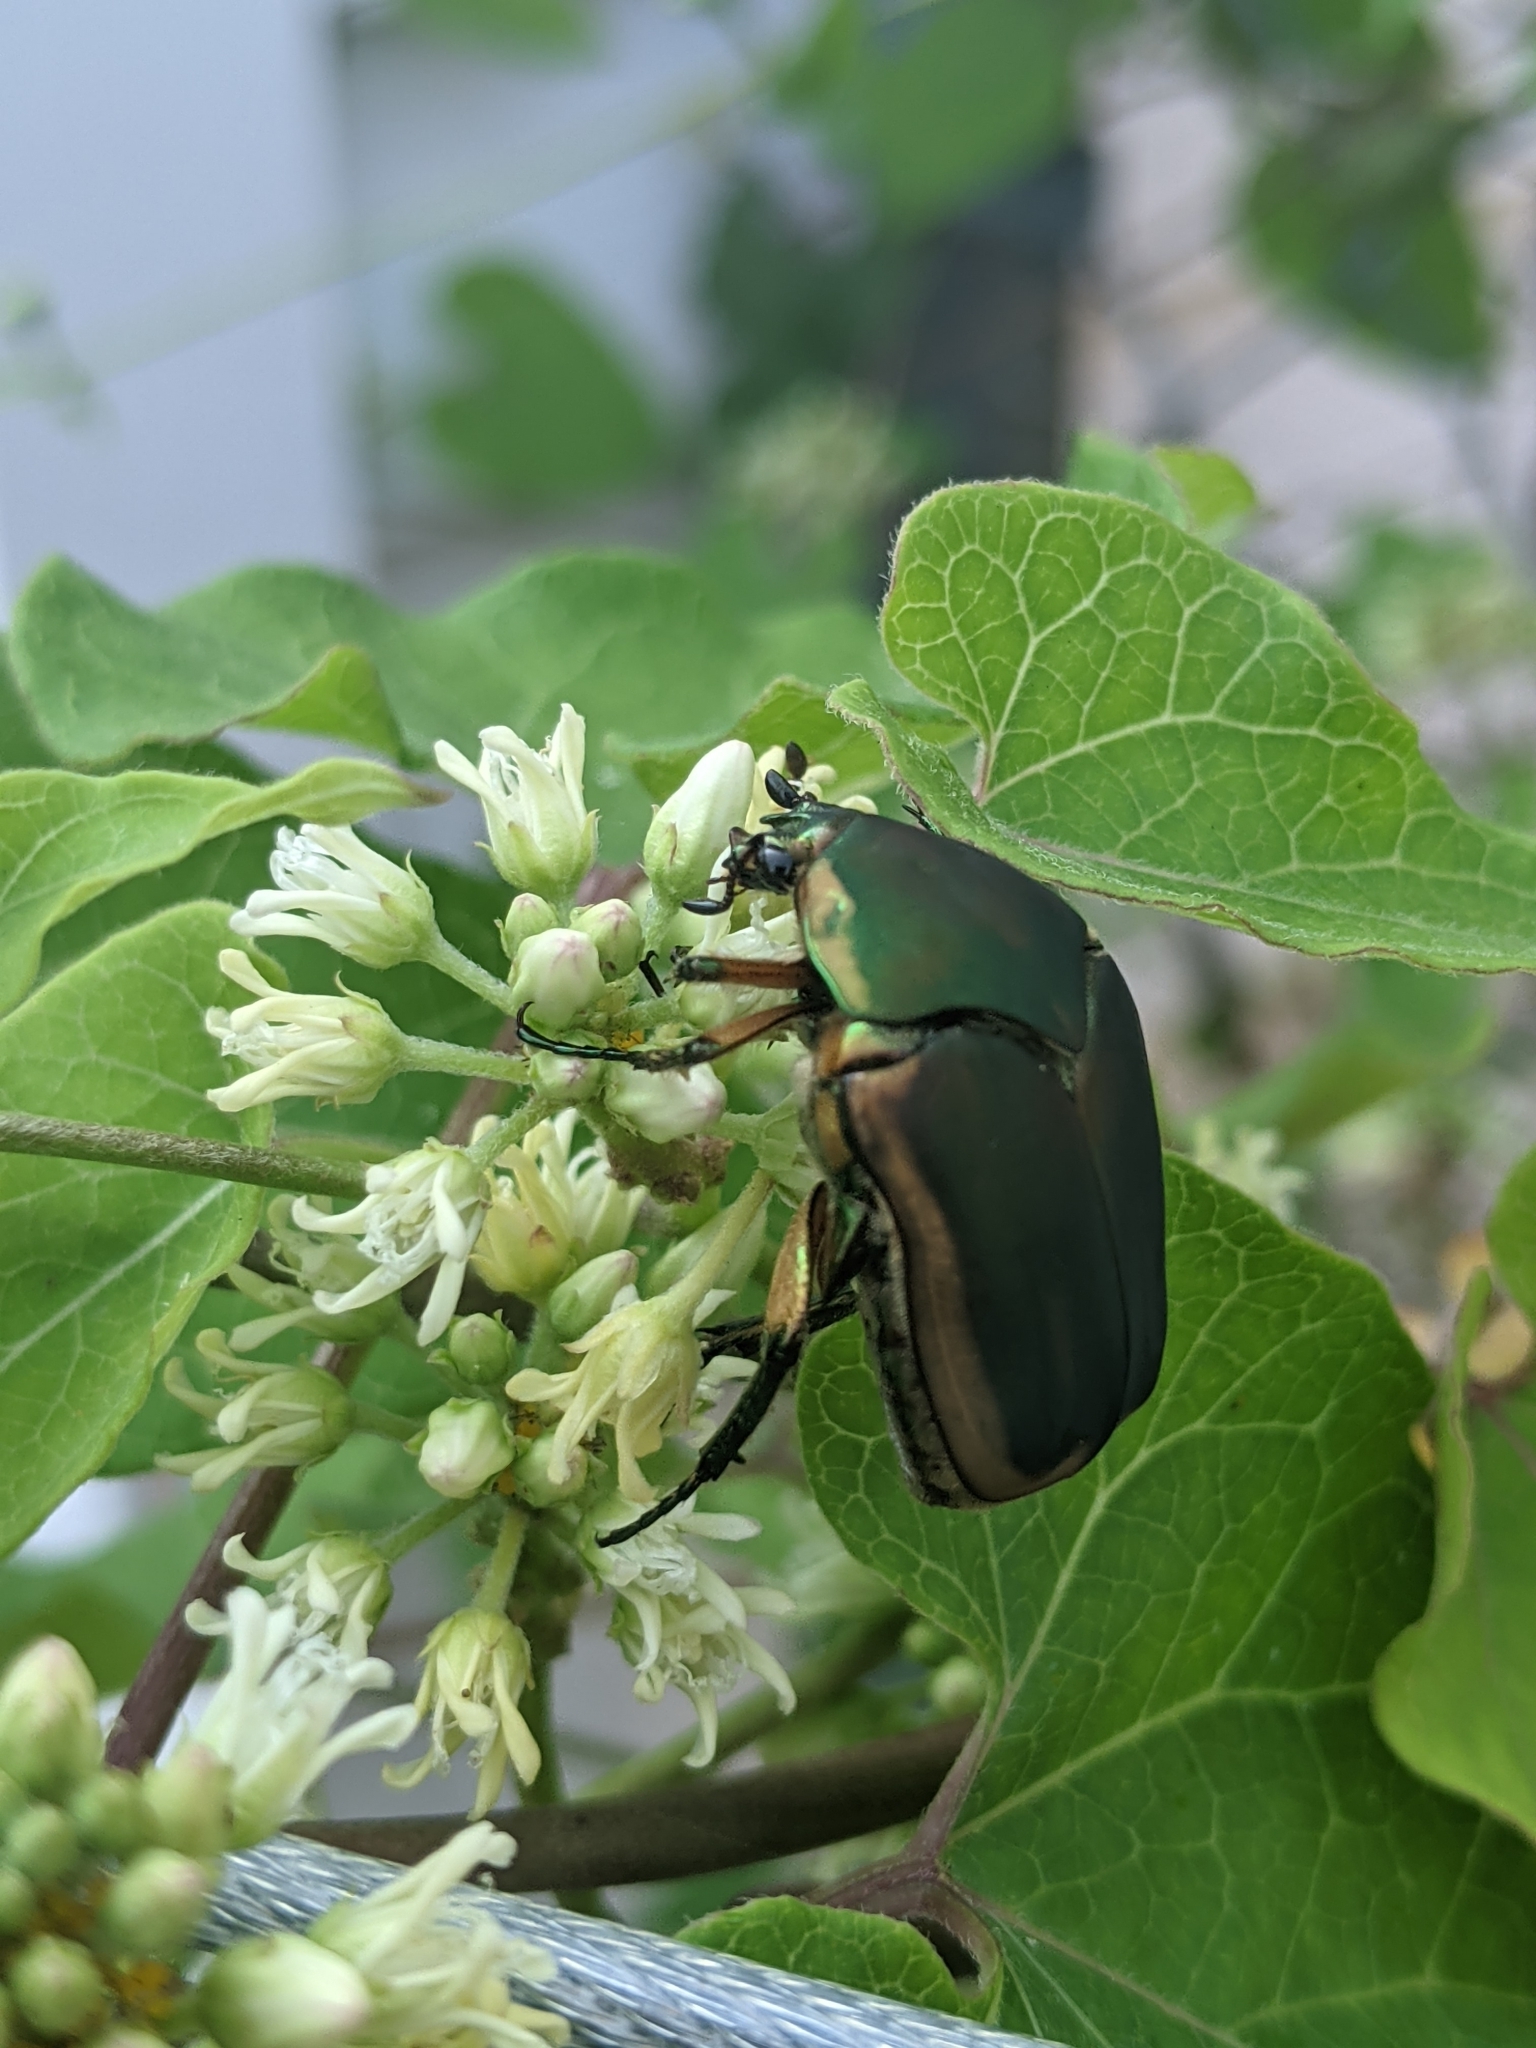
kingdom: Animalia
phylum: Arthropoda
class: Insecta
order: Coleoptera
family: Scarabaeidae
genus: Cotinis
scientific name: Cotinis nitida
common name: Common green june beetle
